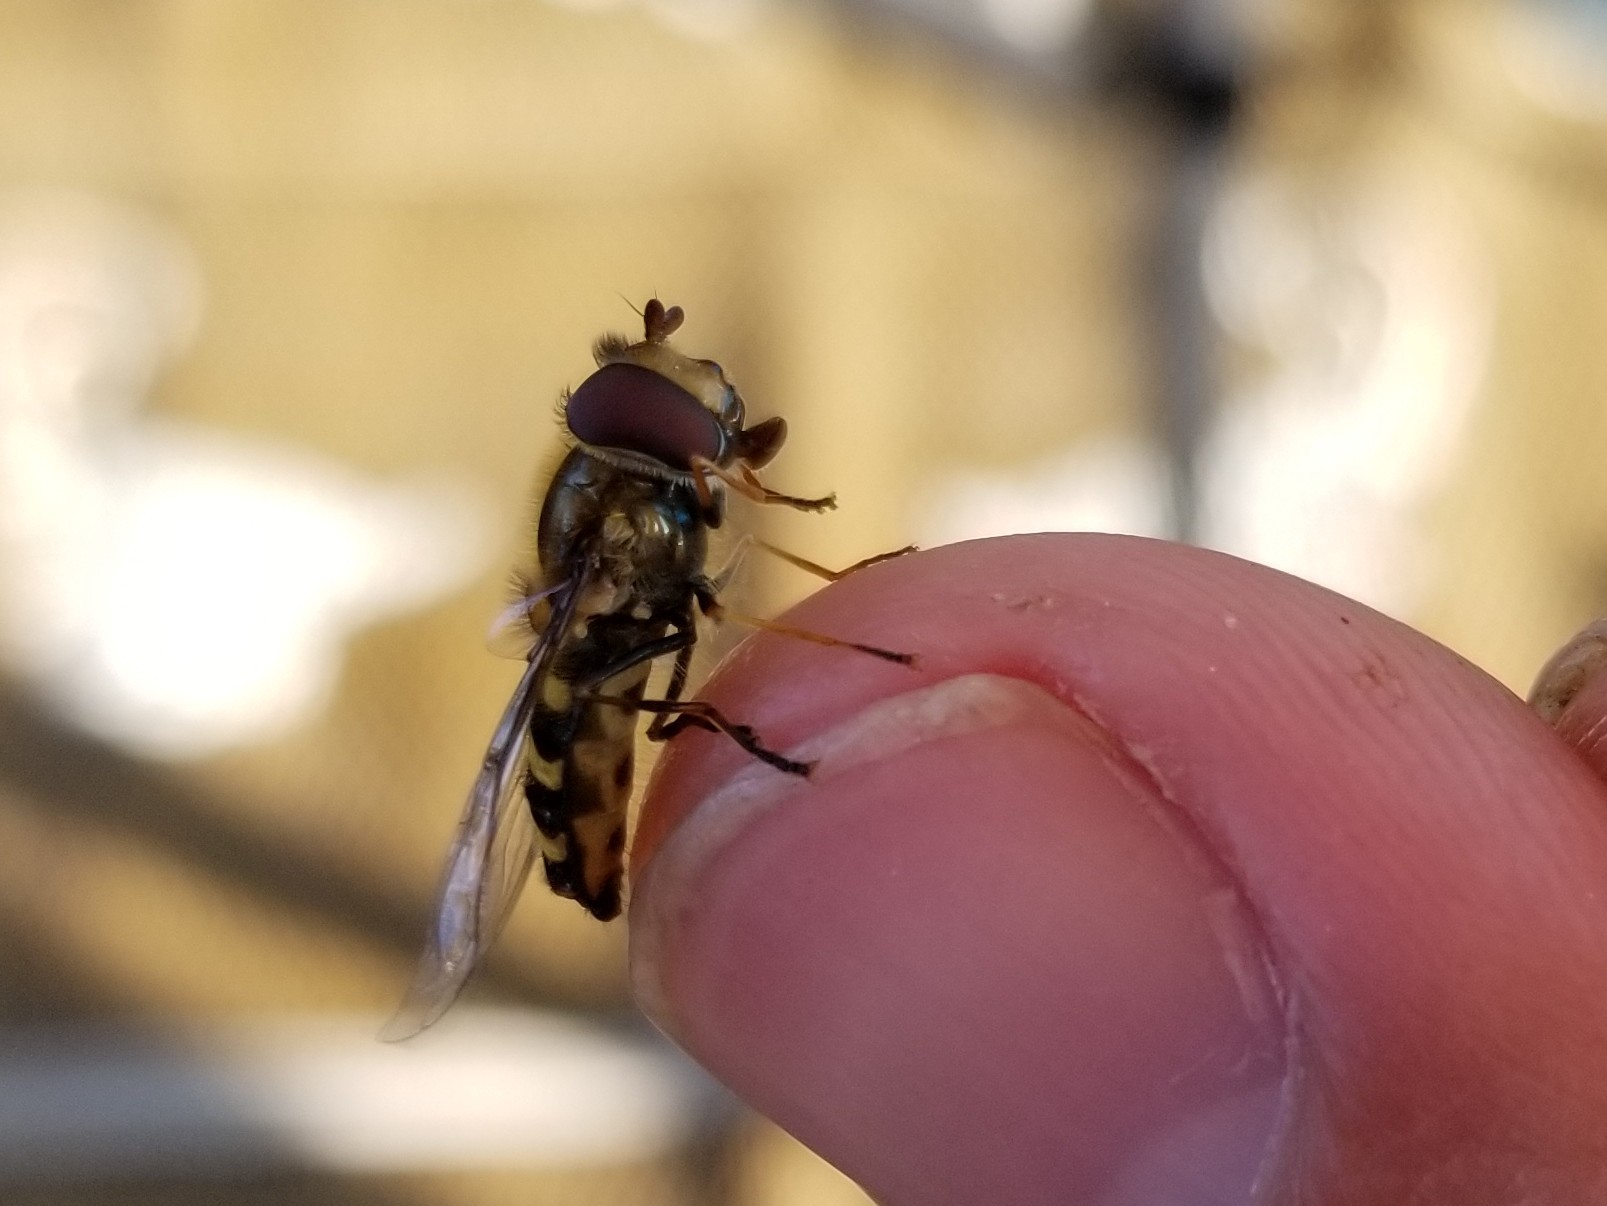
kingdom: Animalia
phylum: Arthropoda
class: Insecta
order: Diptera
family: Syrphidae
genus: Lapposyrphus
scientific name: Lapposyrphus lapponicus
